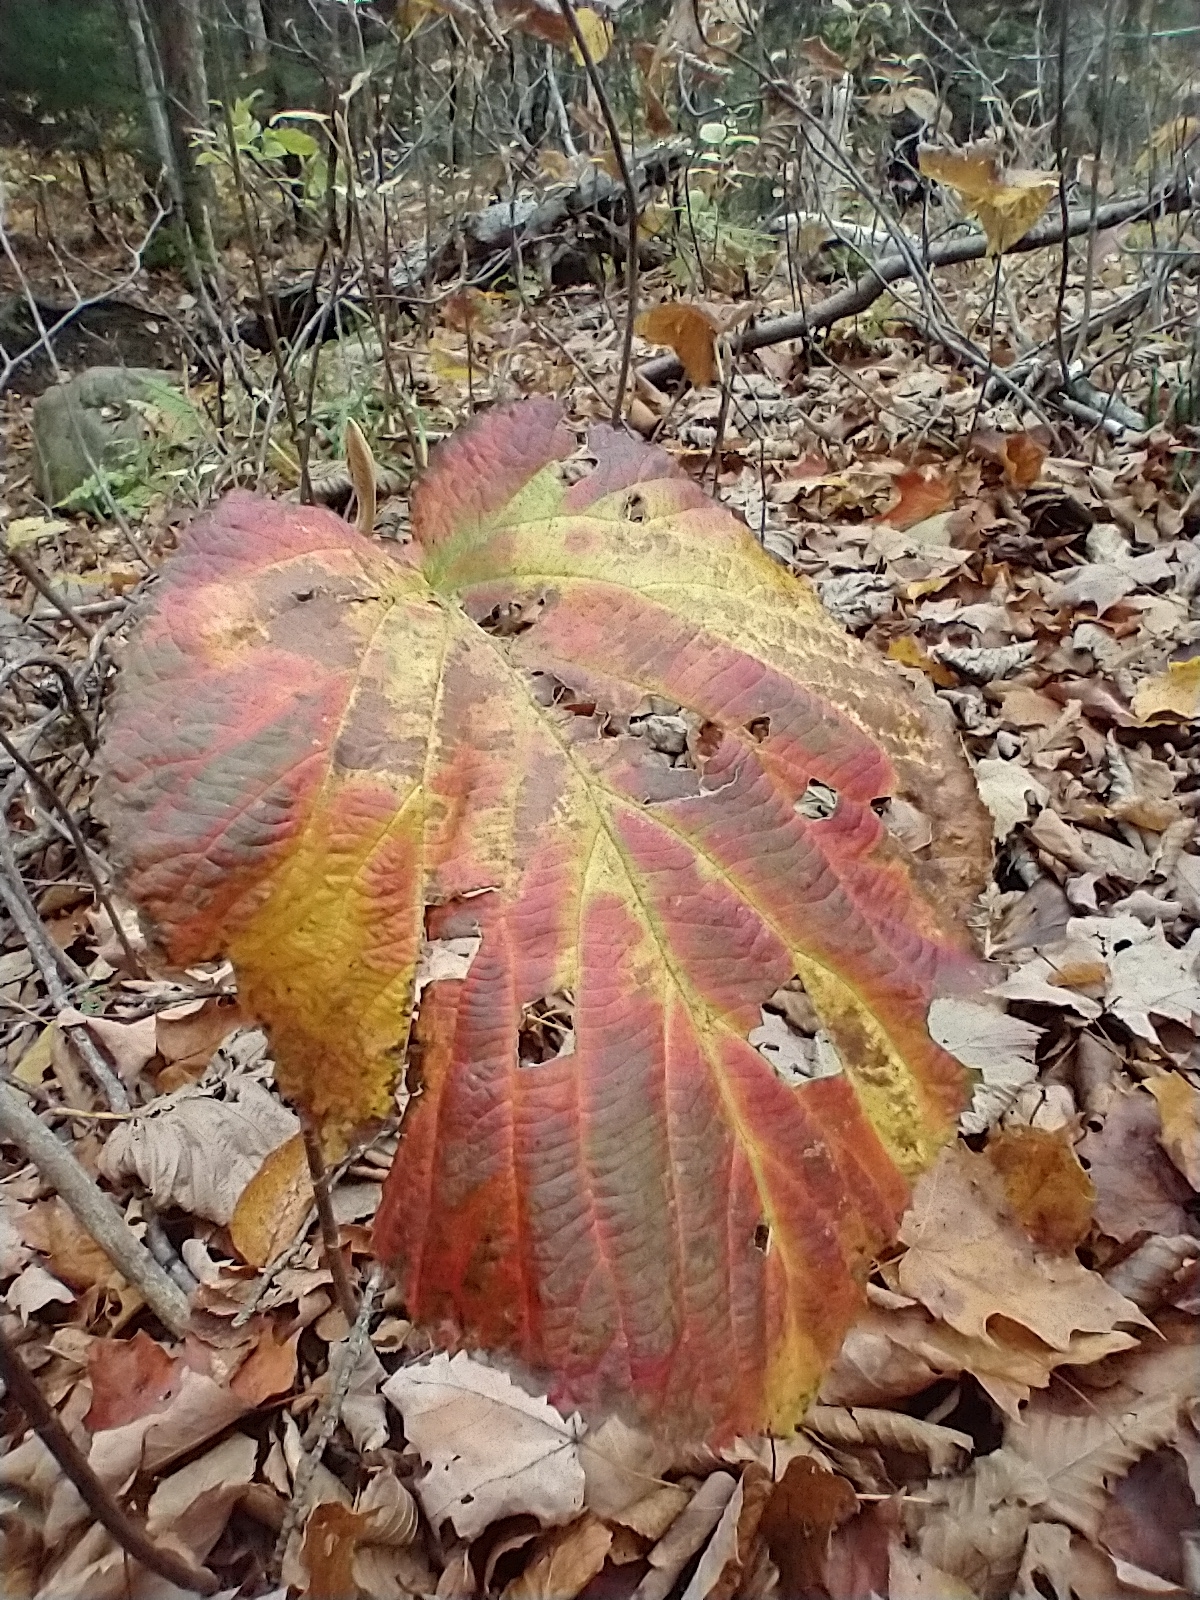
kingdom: Plantae
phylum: Tracheophyta
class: Magnoliopsida
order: Dipsacales
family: Viburnaceae
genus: Viburnum
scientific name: Viburnum lantanoides
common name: Hobblebush
